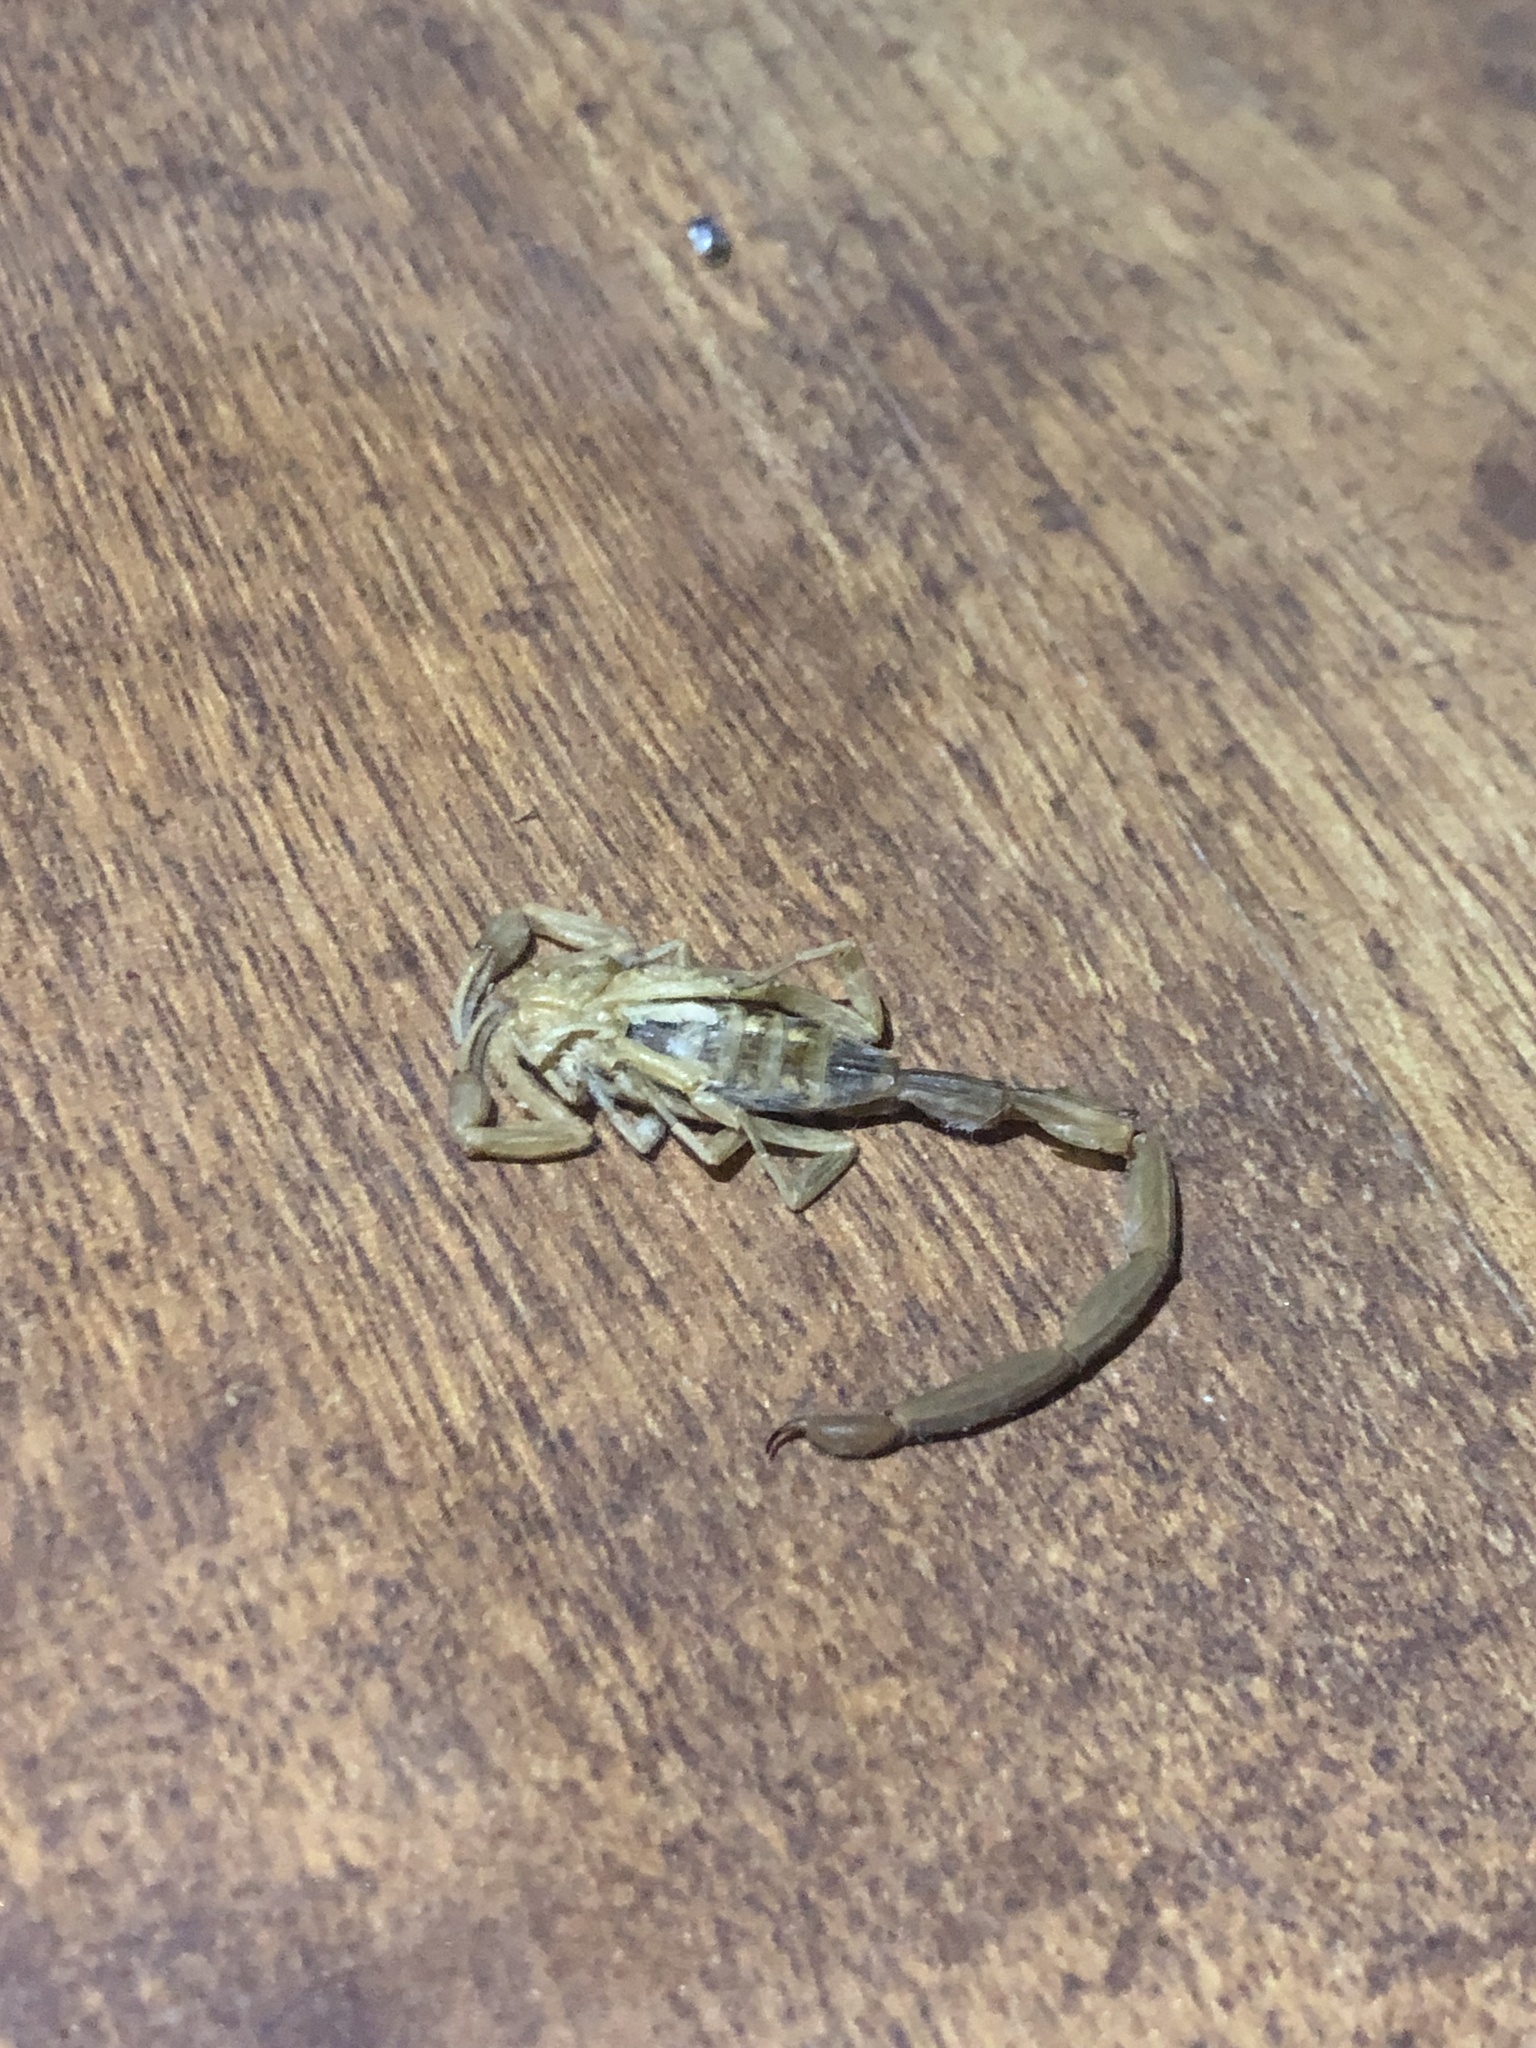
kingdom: Animalia
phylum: Arthropoda
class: Arachnida
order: Scorpiones
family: Buthidae
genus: Centruroides
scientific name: Centruroides vittatus
